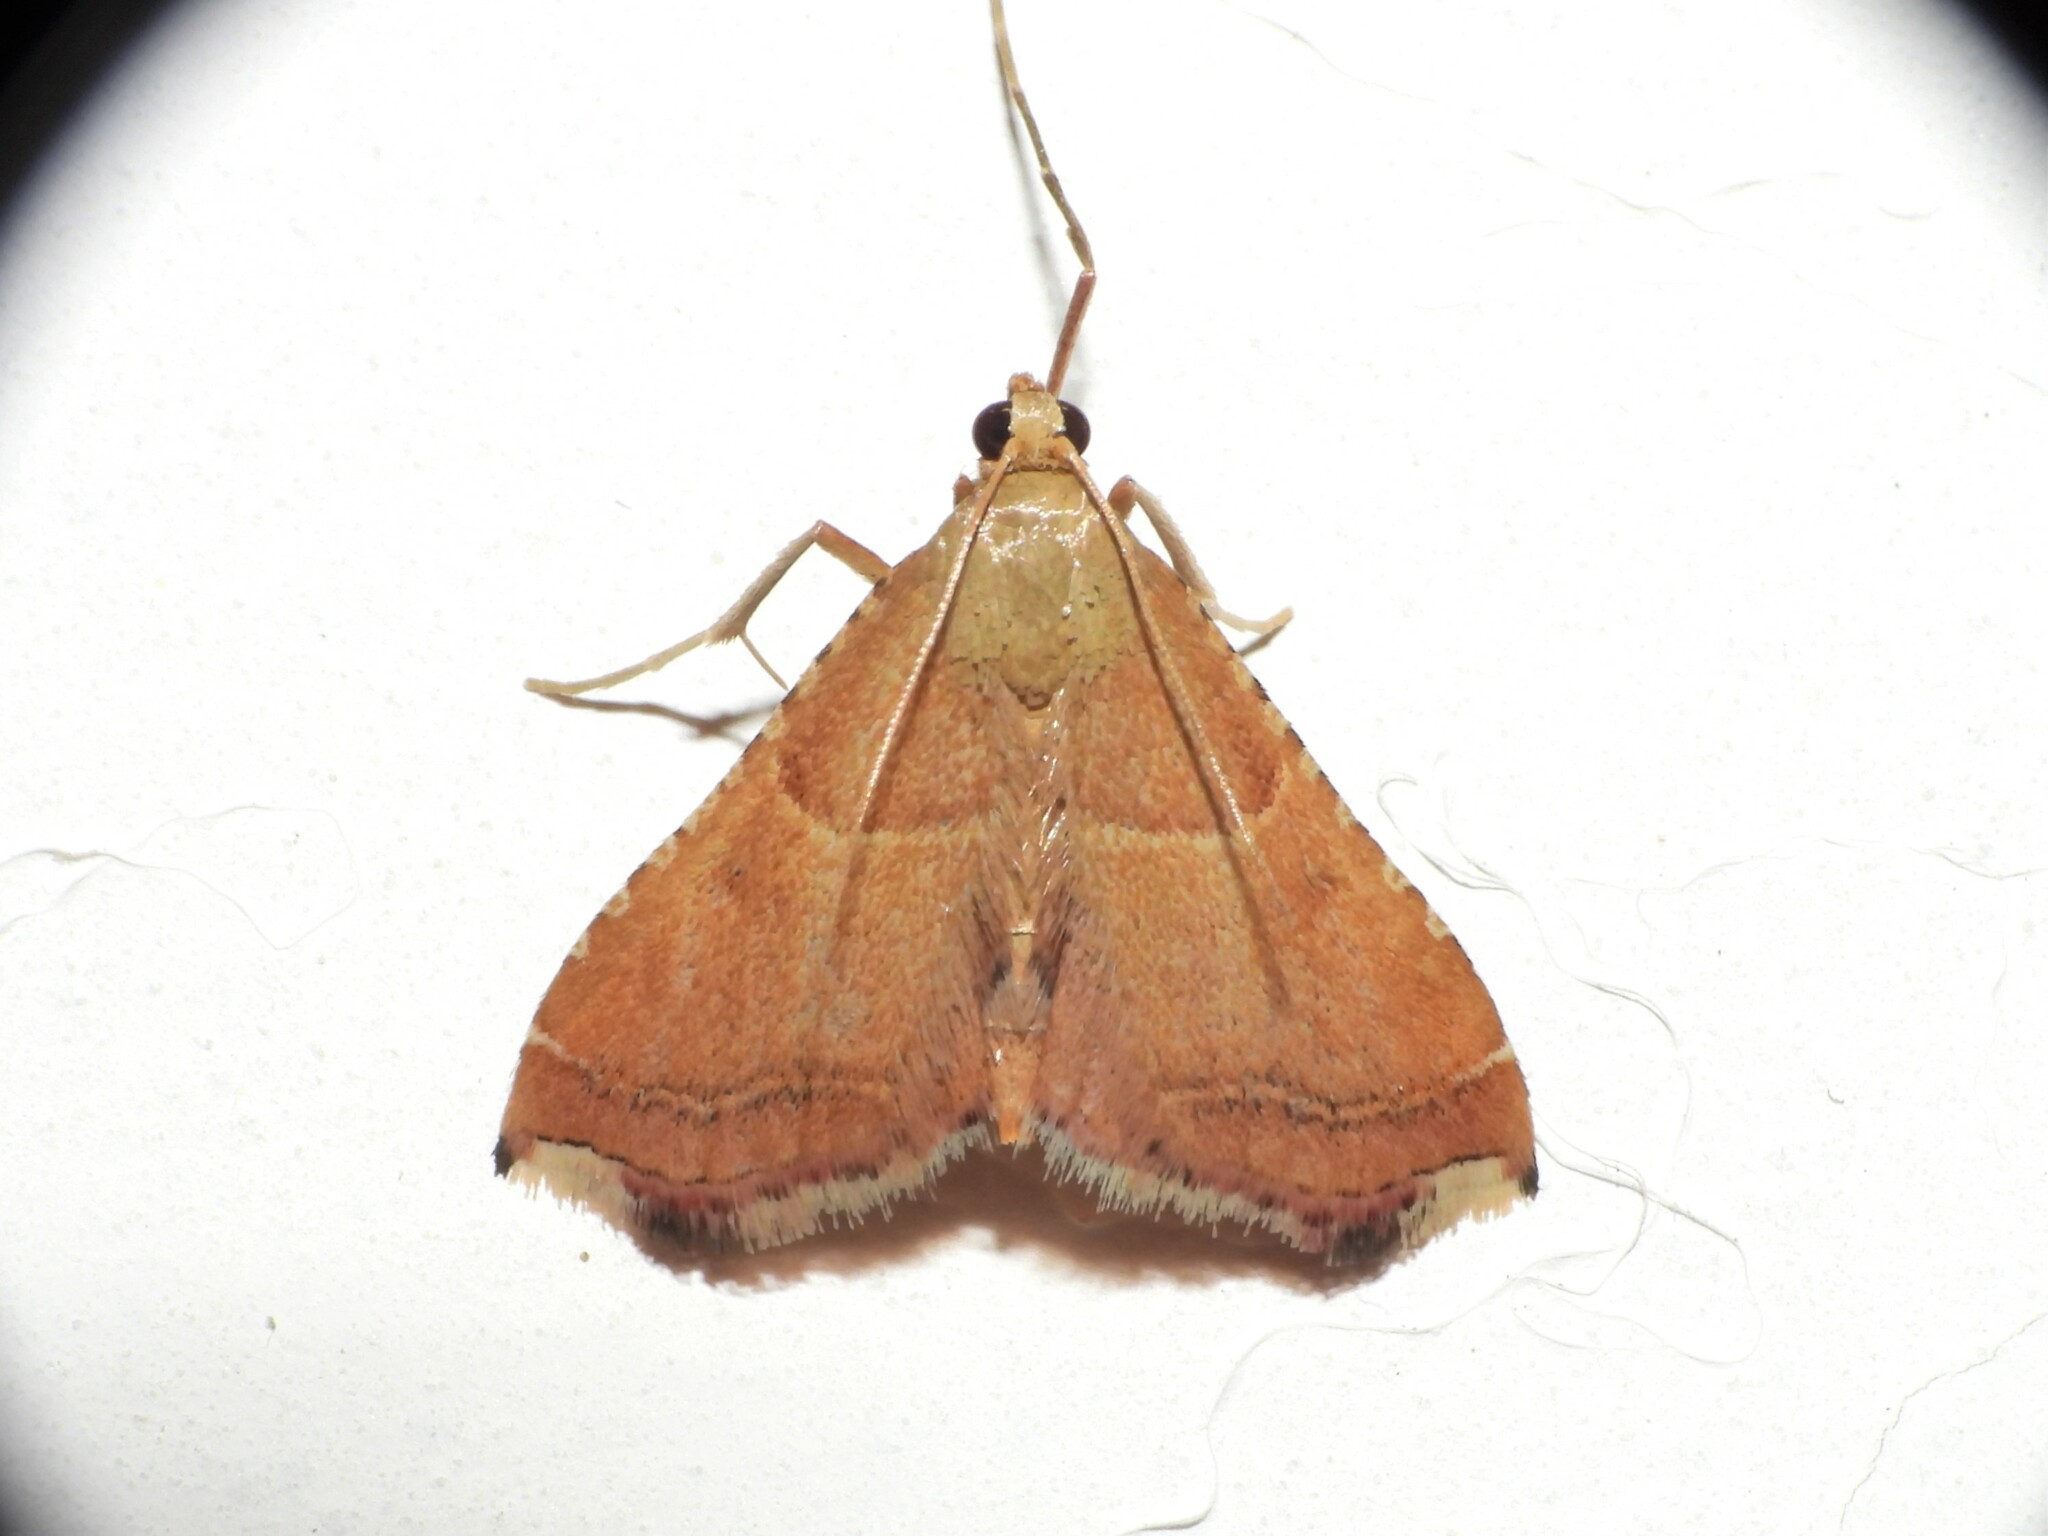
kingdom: Animalia
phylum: Arthropoda
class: Insecta
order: Lepidoptera
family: Pyralidae
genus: Endotricha
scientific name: Endotricha flammealis
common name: Rosy tabby
